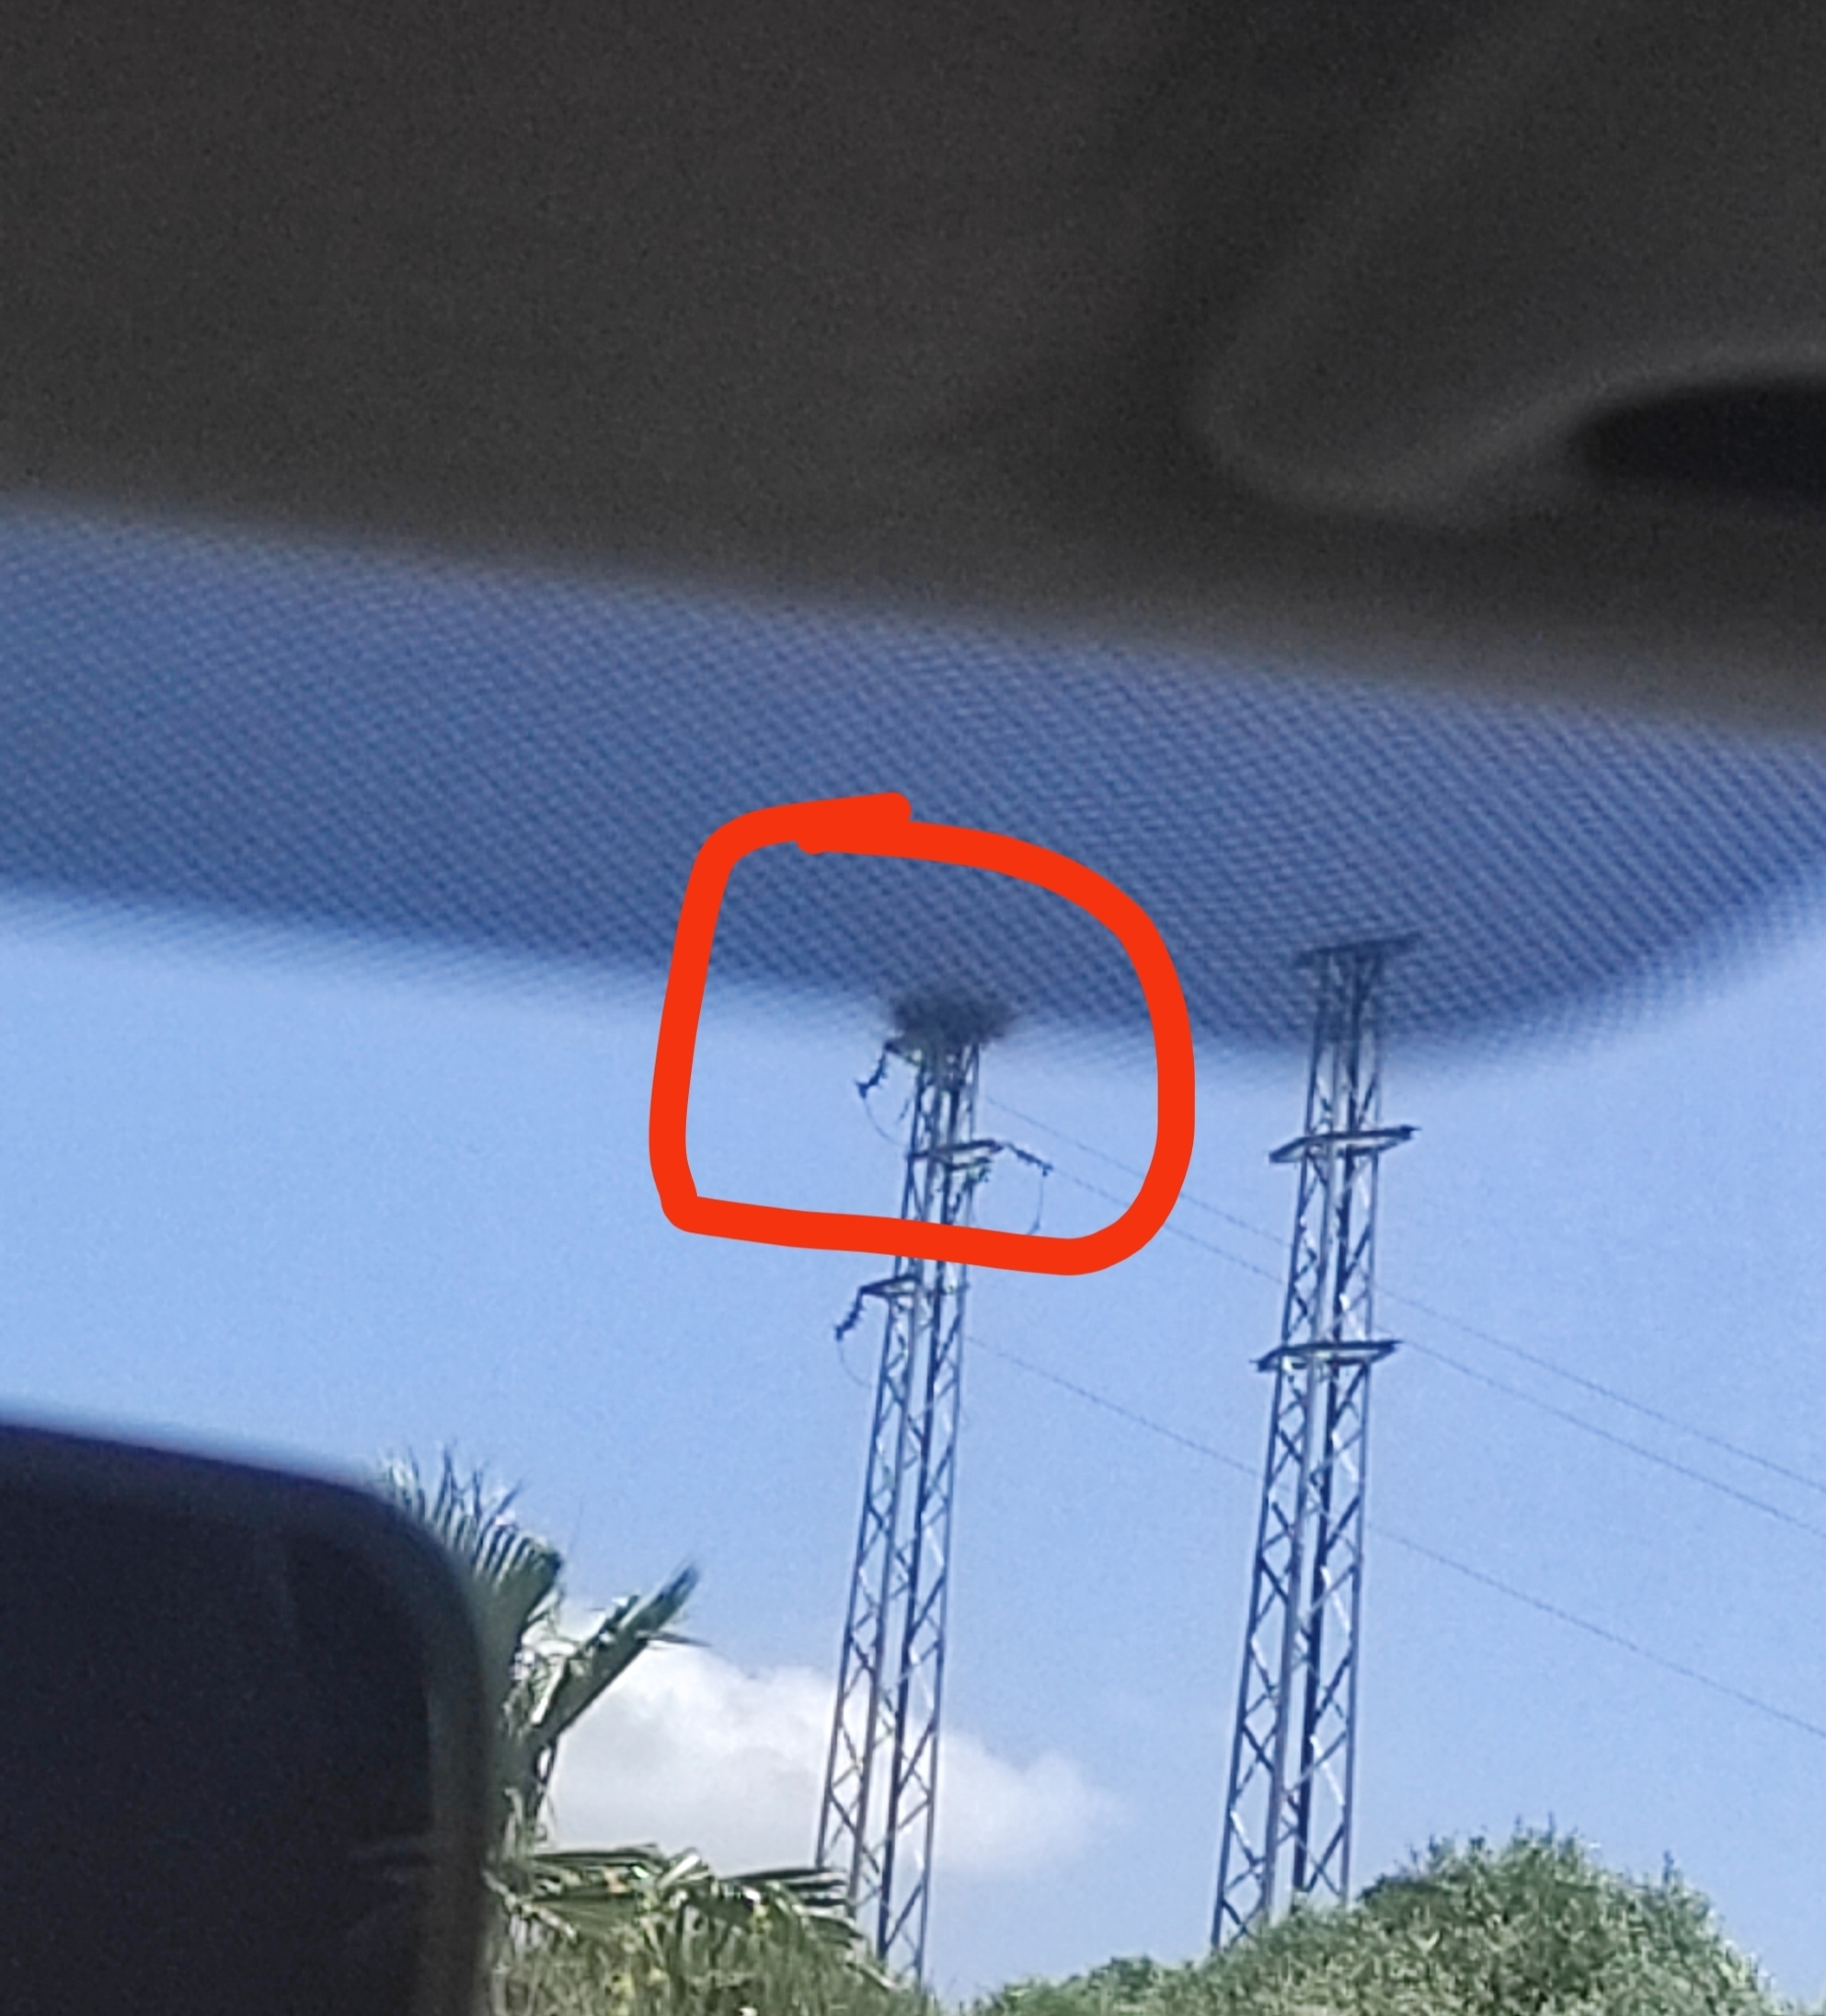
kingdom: Animalia
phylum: Chordata
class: Aves
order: Ciconiiformes
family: Ciconiidae
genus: Ciconia
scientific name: Ciconia ciconia
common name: White stork
